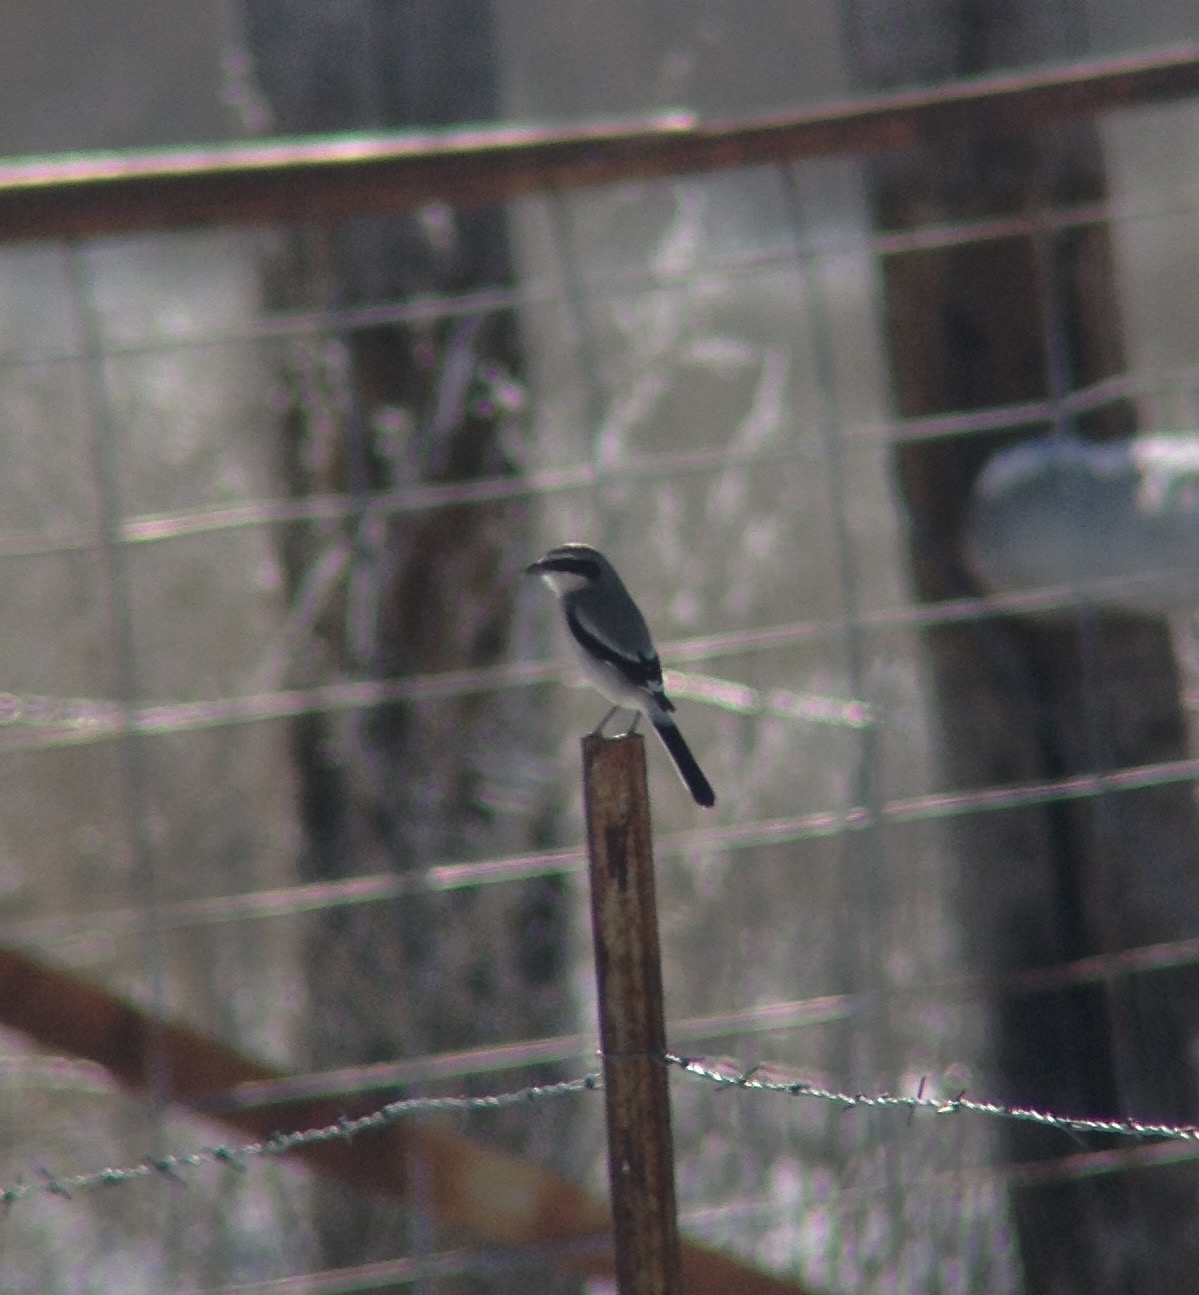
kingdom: Animalia
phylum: Chordata
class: Aves
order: Passeriformes
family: Laniidae
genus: Lanius
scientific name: Lanius ludovicianus
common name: Loggerhead shrike
